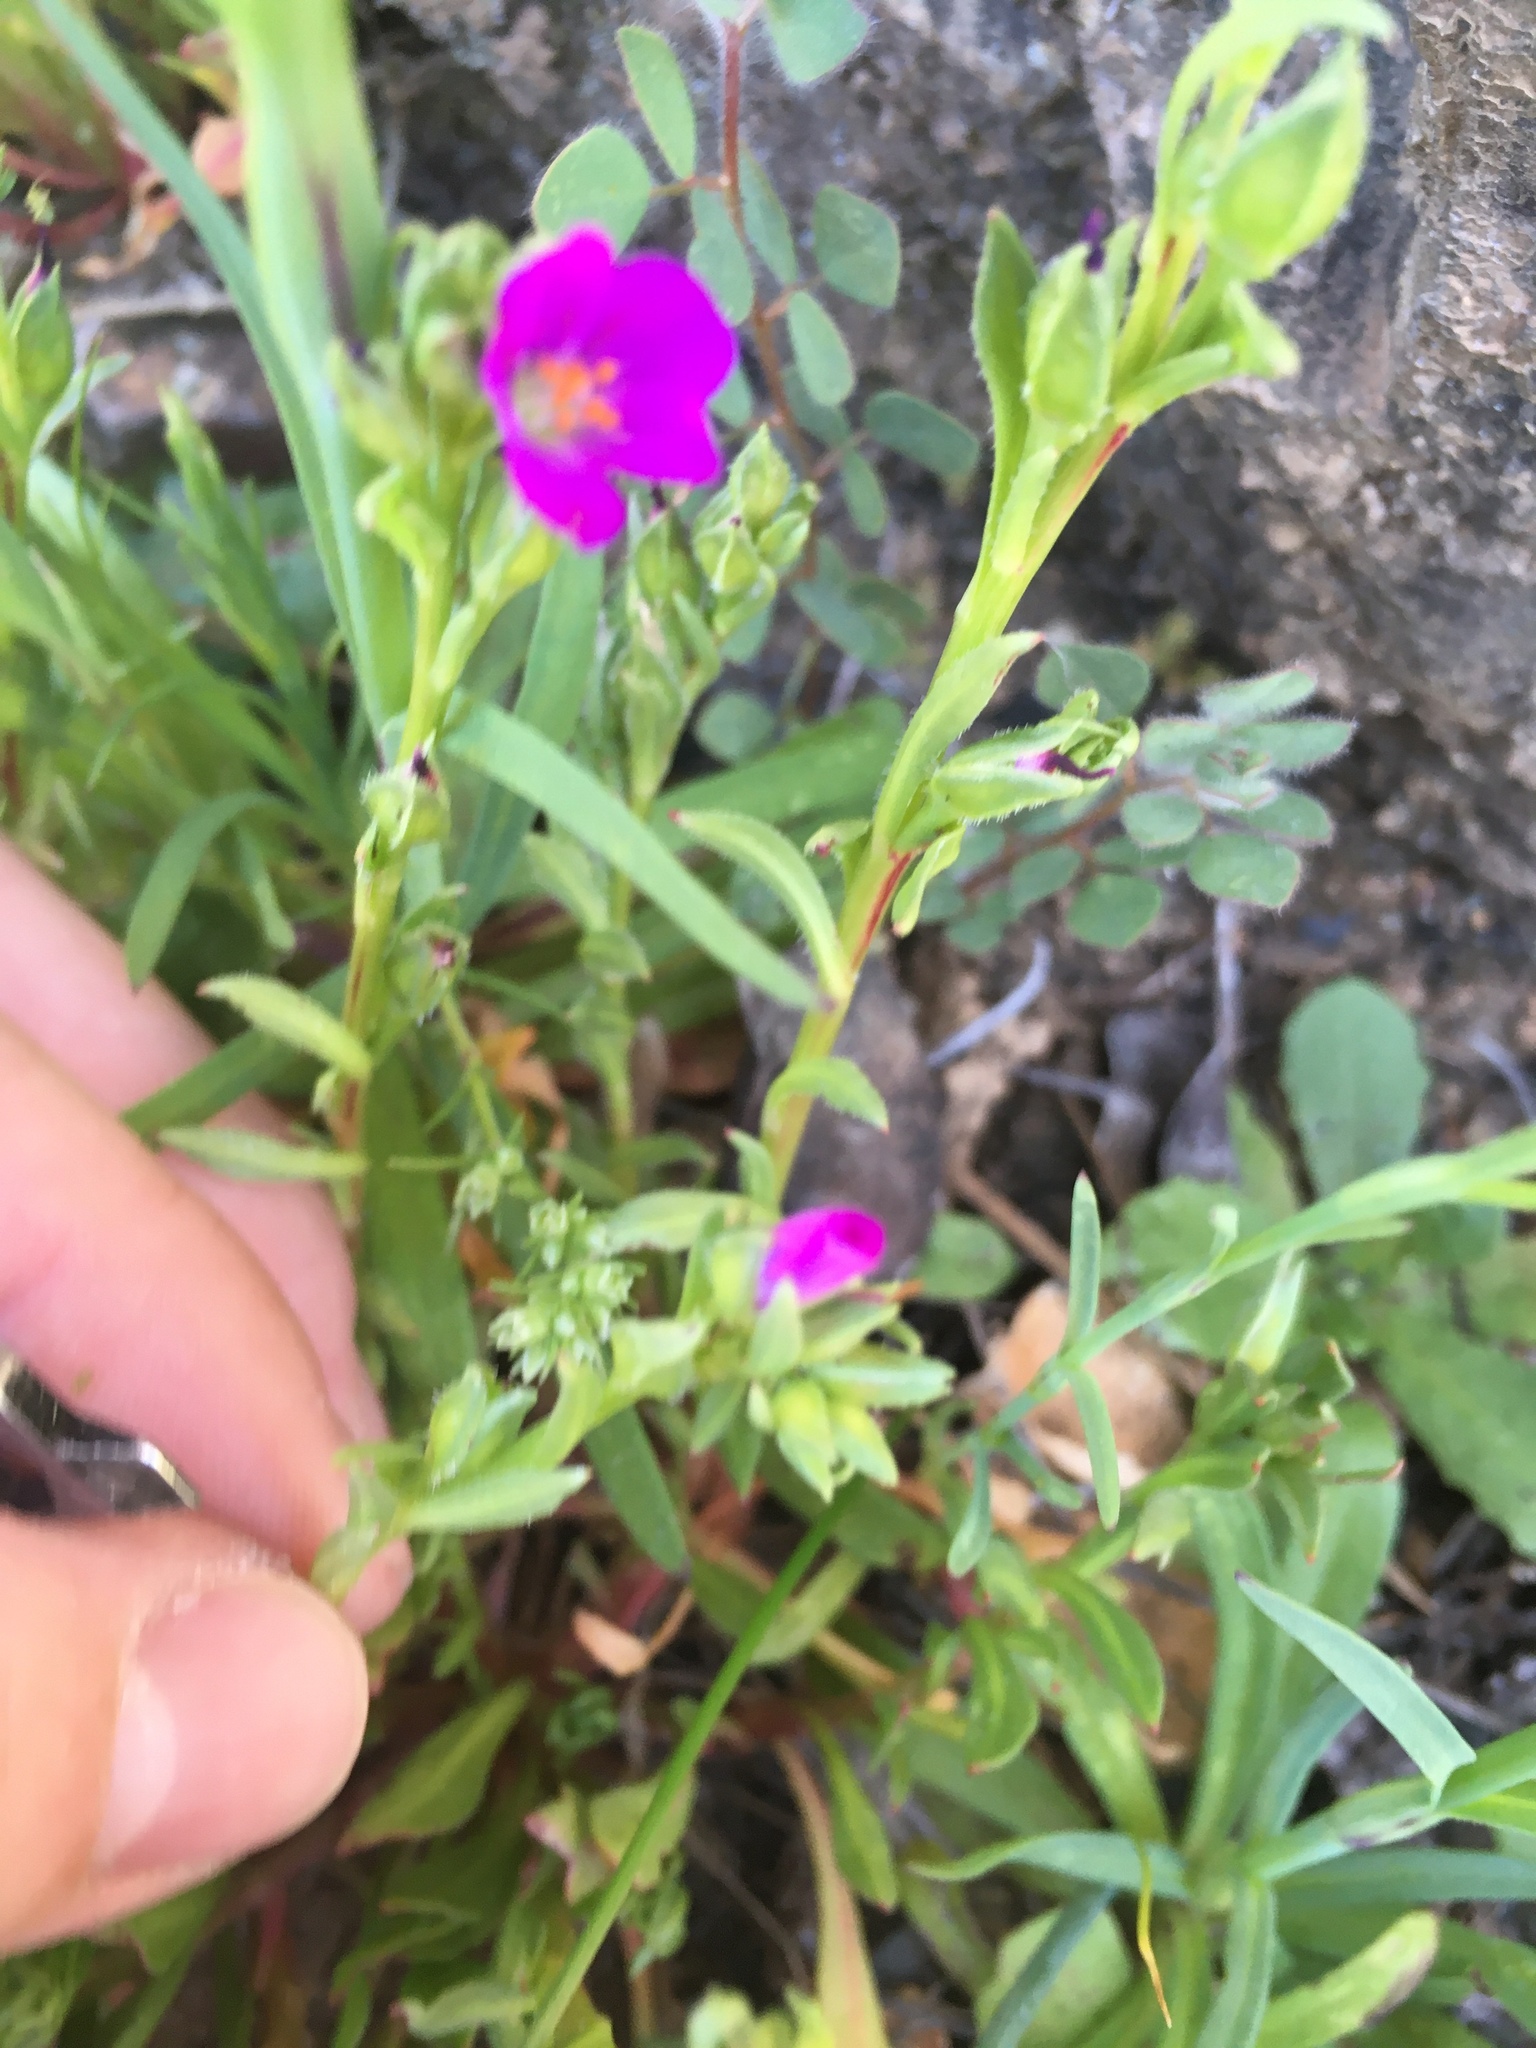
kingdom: Plantae
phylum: Tracheophyta
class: Magnoliopsida
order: Caryophyllales
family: Montiaceae
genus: Calandrinia
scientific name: Calandrinia menziesii
